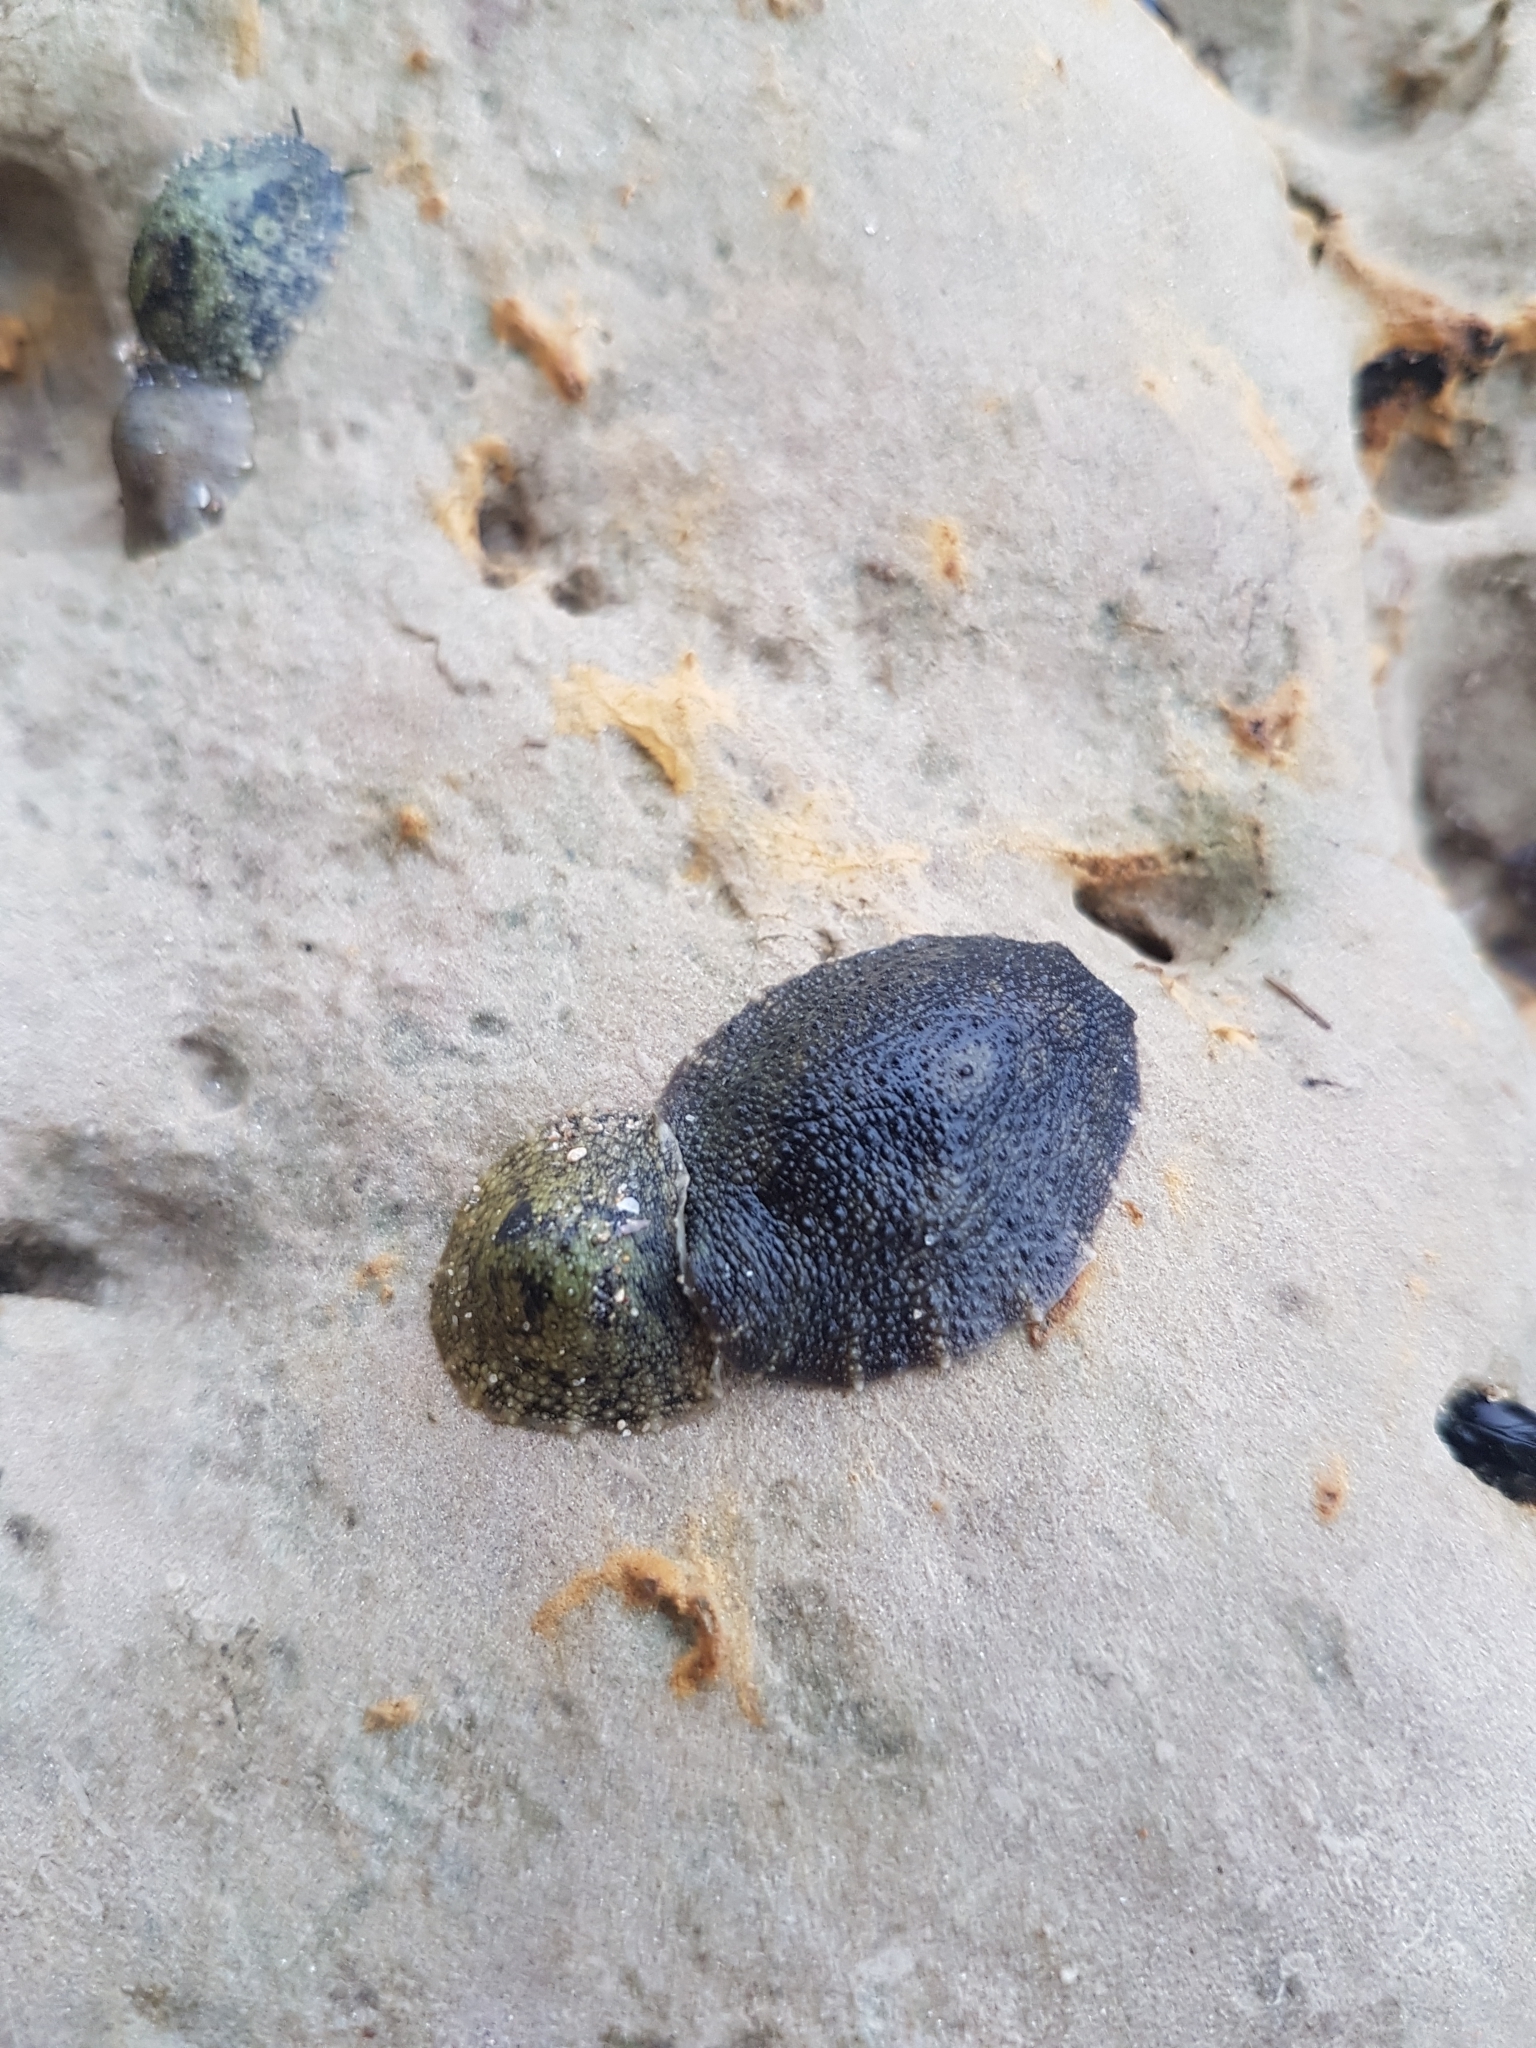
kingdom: Animalia
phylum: Mollusca
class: Gastropoda
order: Systellommatophora
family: Onchidiidae
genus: Onchidella
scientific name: Onchidella nigricans
